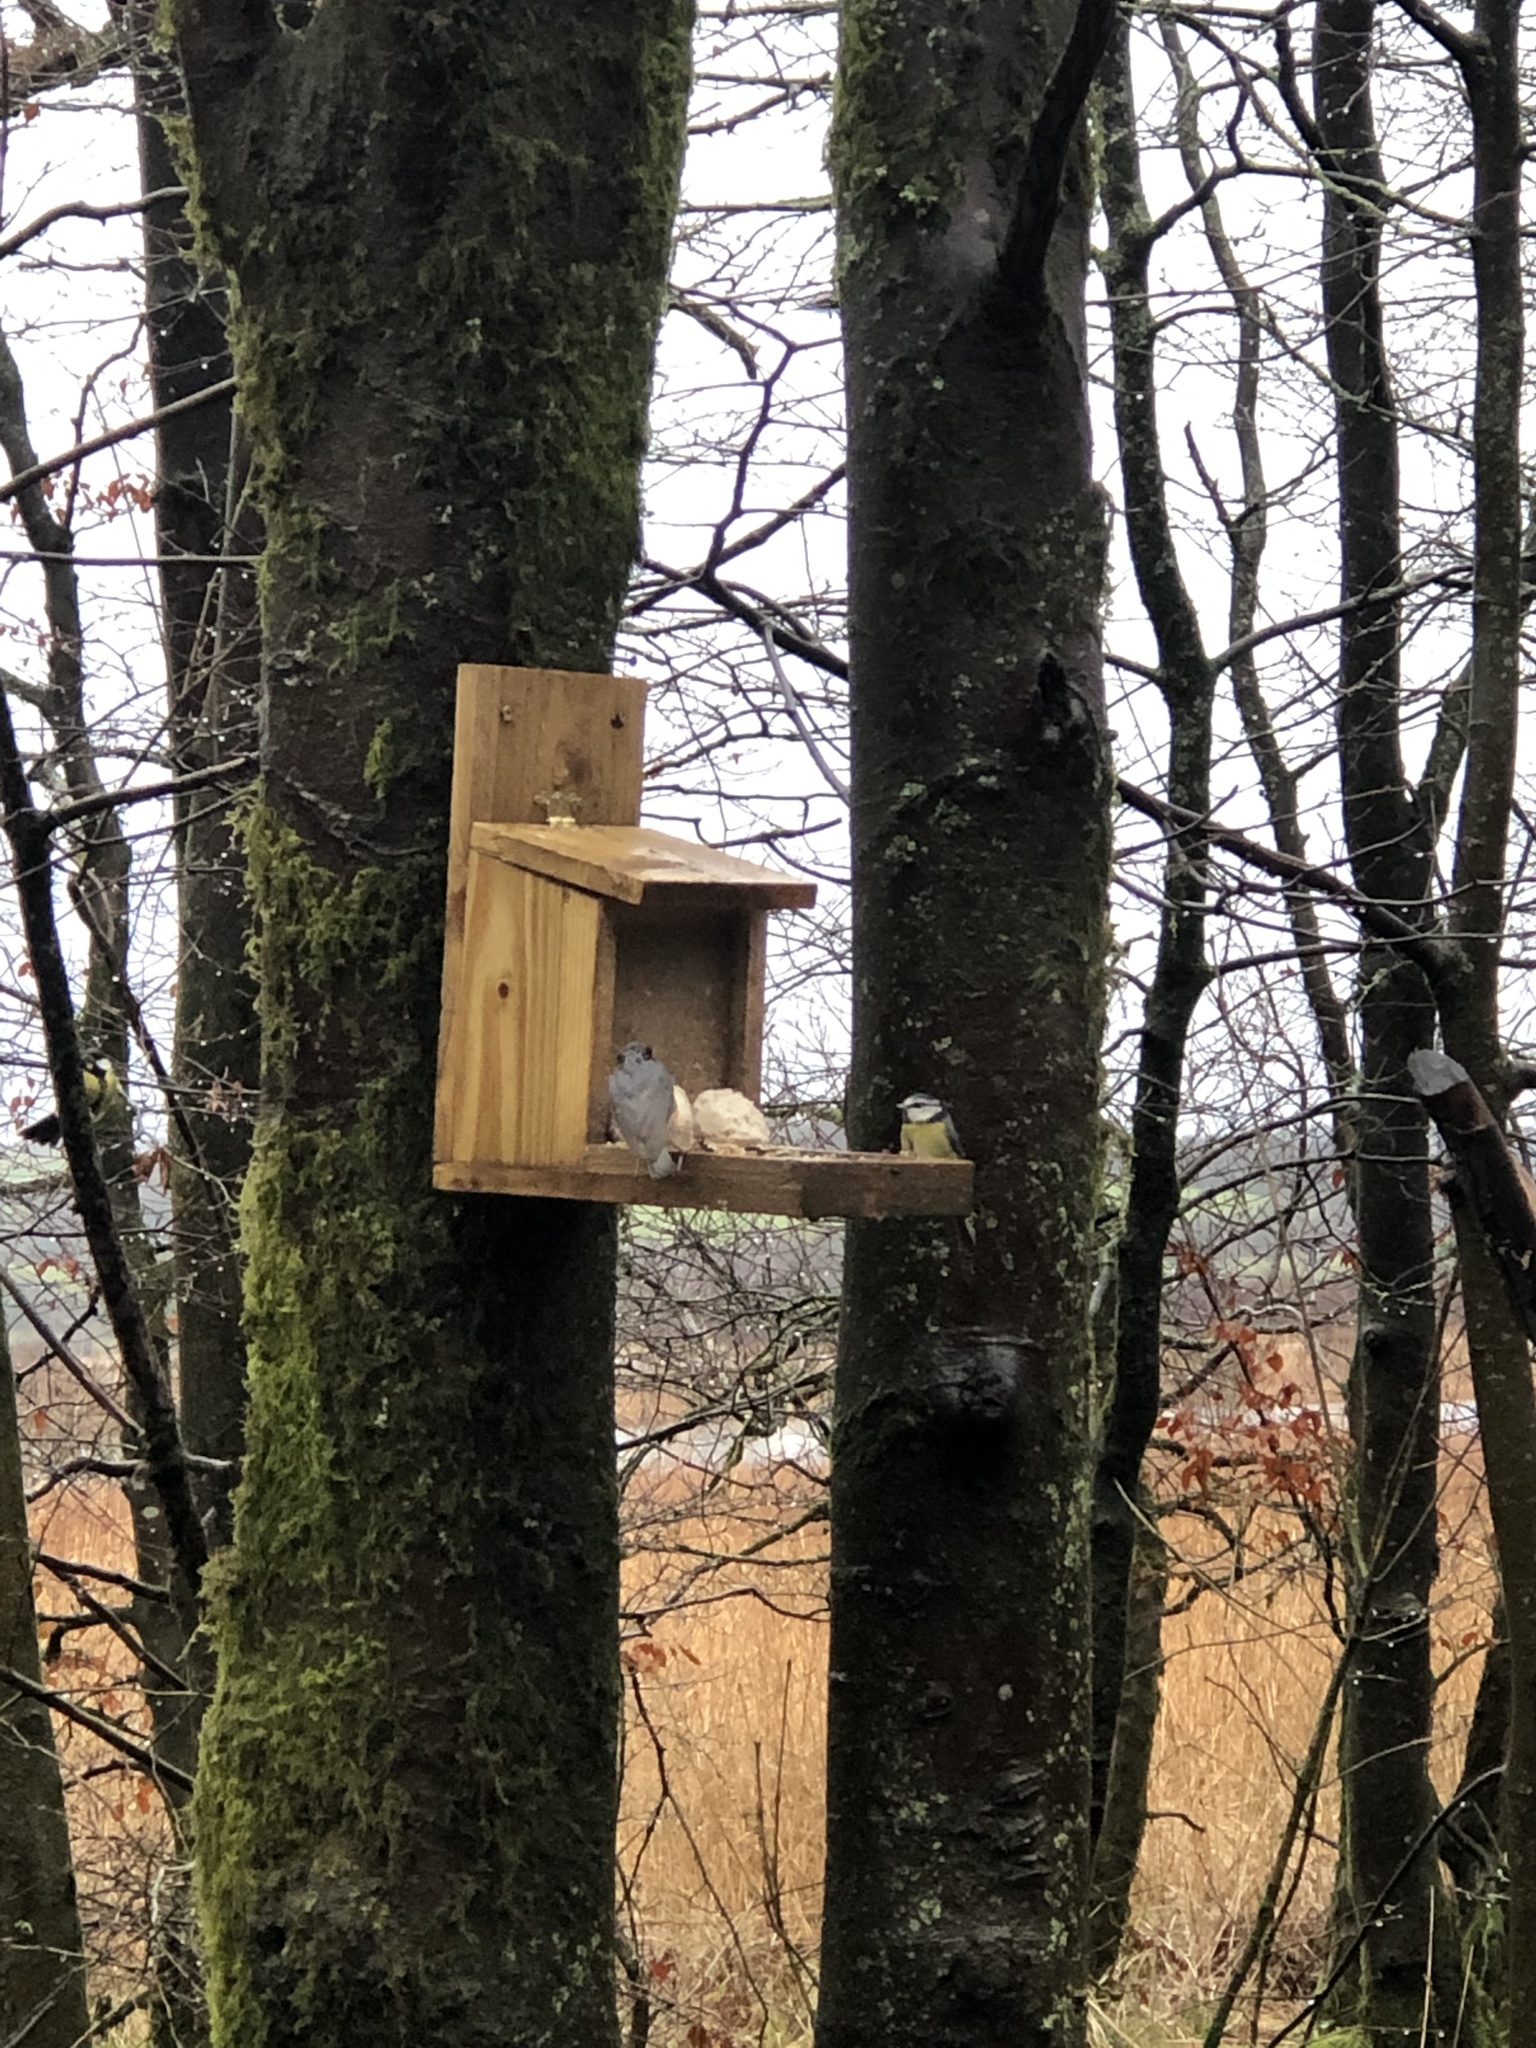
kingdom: Animalia
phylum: Chordata
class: Aves
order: Passeriformes
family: Paridae
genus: Cyanistes
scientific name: Cyanistes caeruleus
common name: Eurasian blue tit
